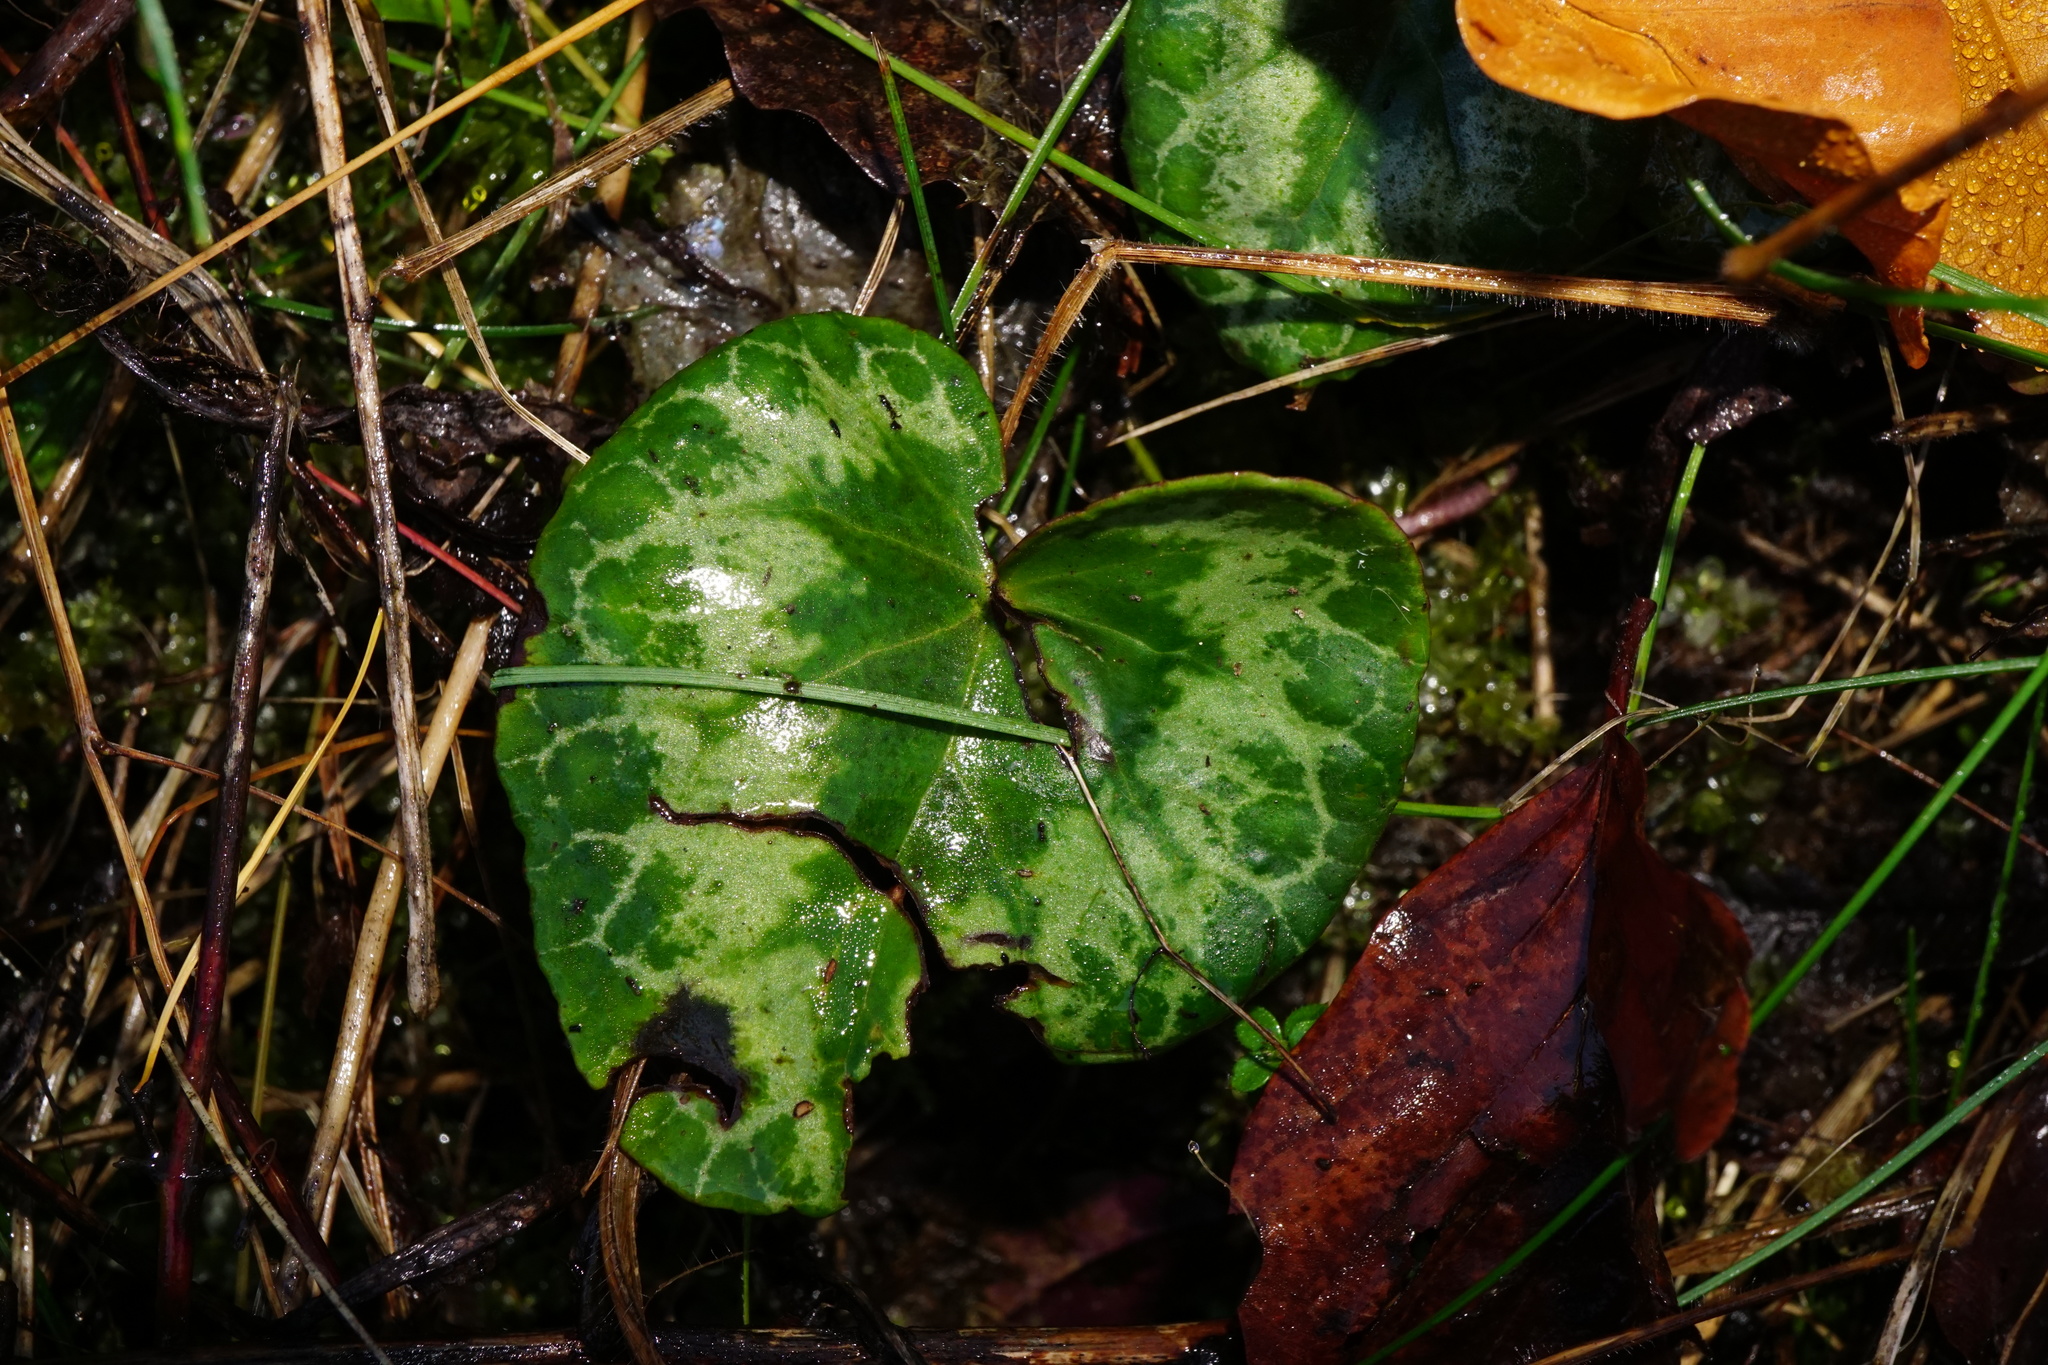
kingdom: Plantae
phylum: Tracheophyta
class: Magnoliopsida
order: Ericales
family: Primulaceae
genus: Cyclamen
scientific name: Cyclamen purpurascens
